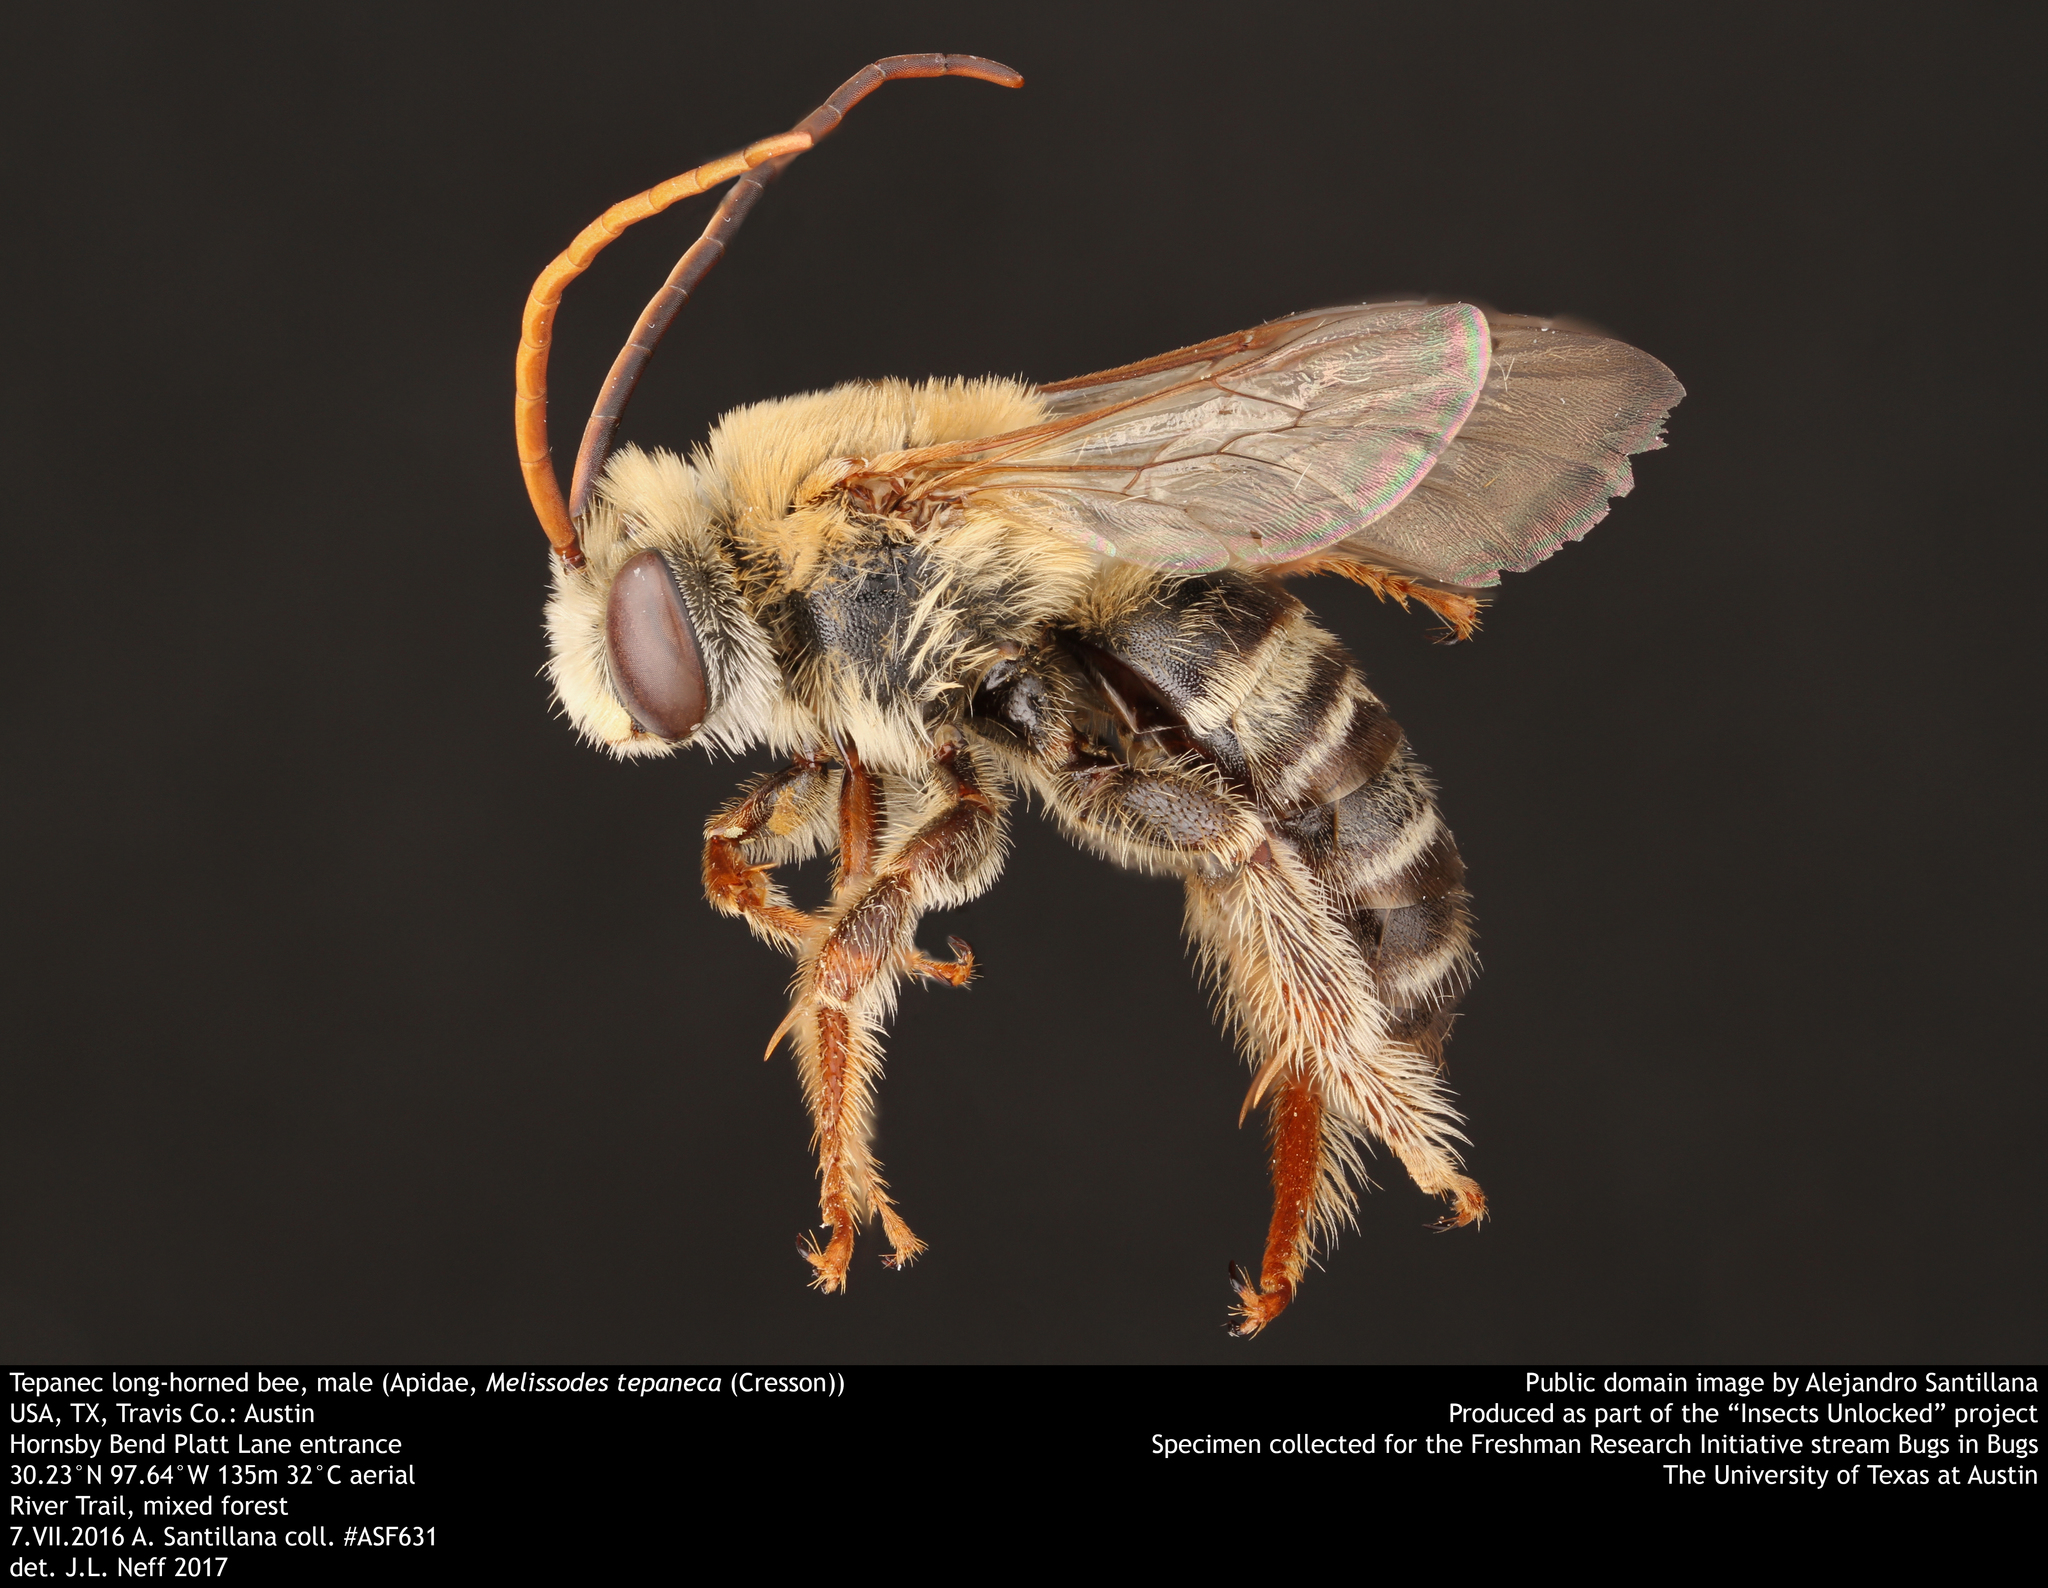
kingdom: Animalia
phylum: Arthropoda
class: Insecta
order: Hymenoptera
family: Apidae
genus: Melissodes
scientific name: Melissodes tepaneca
